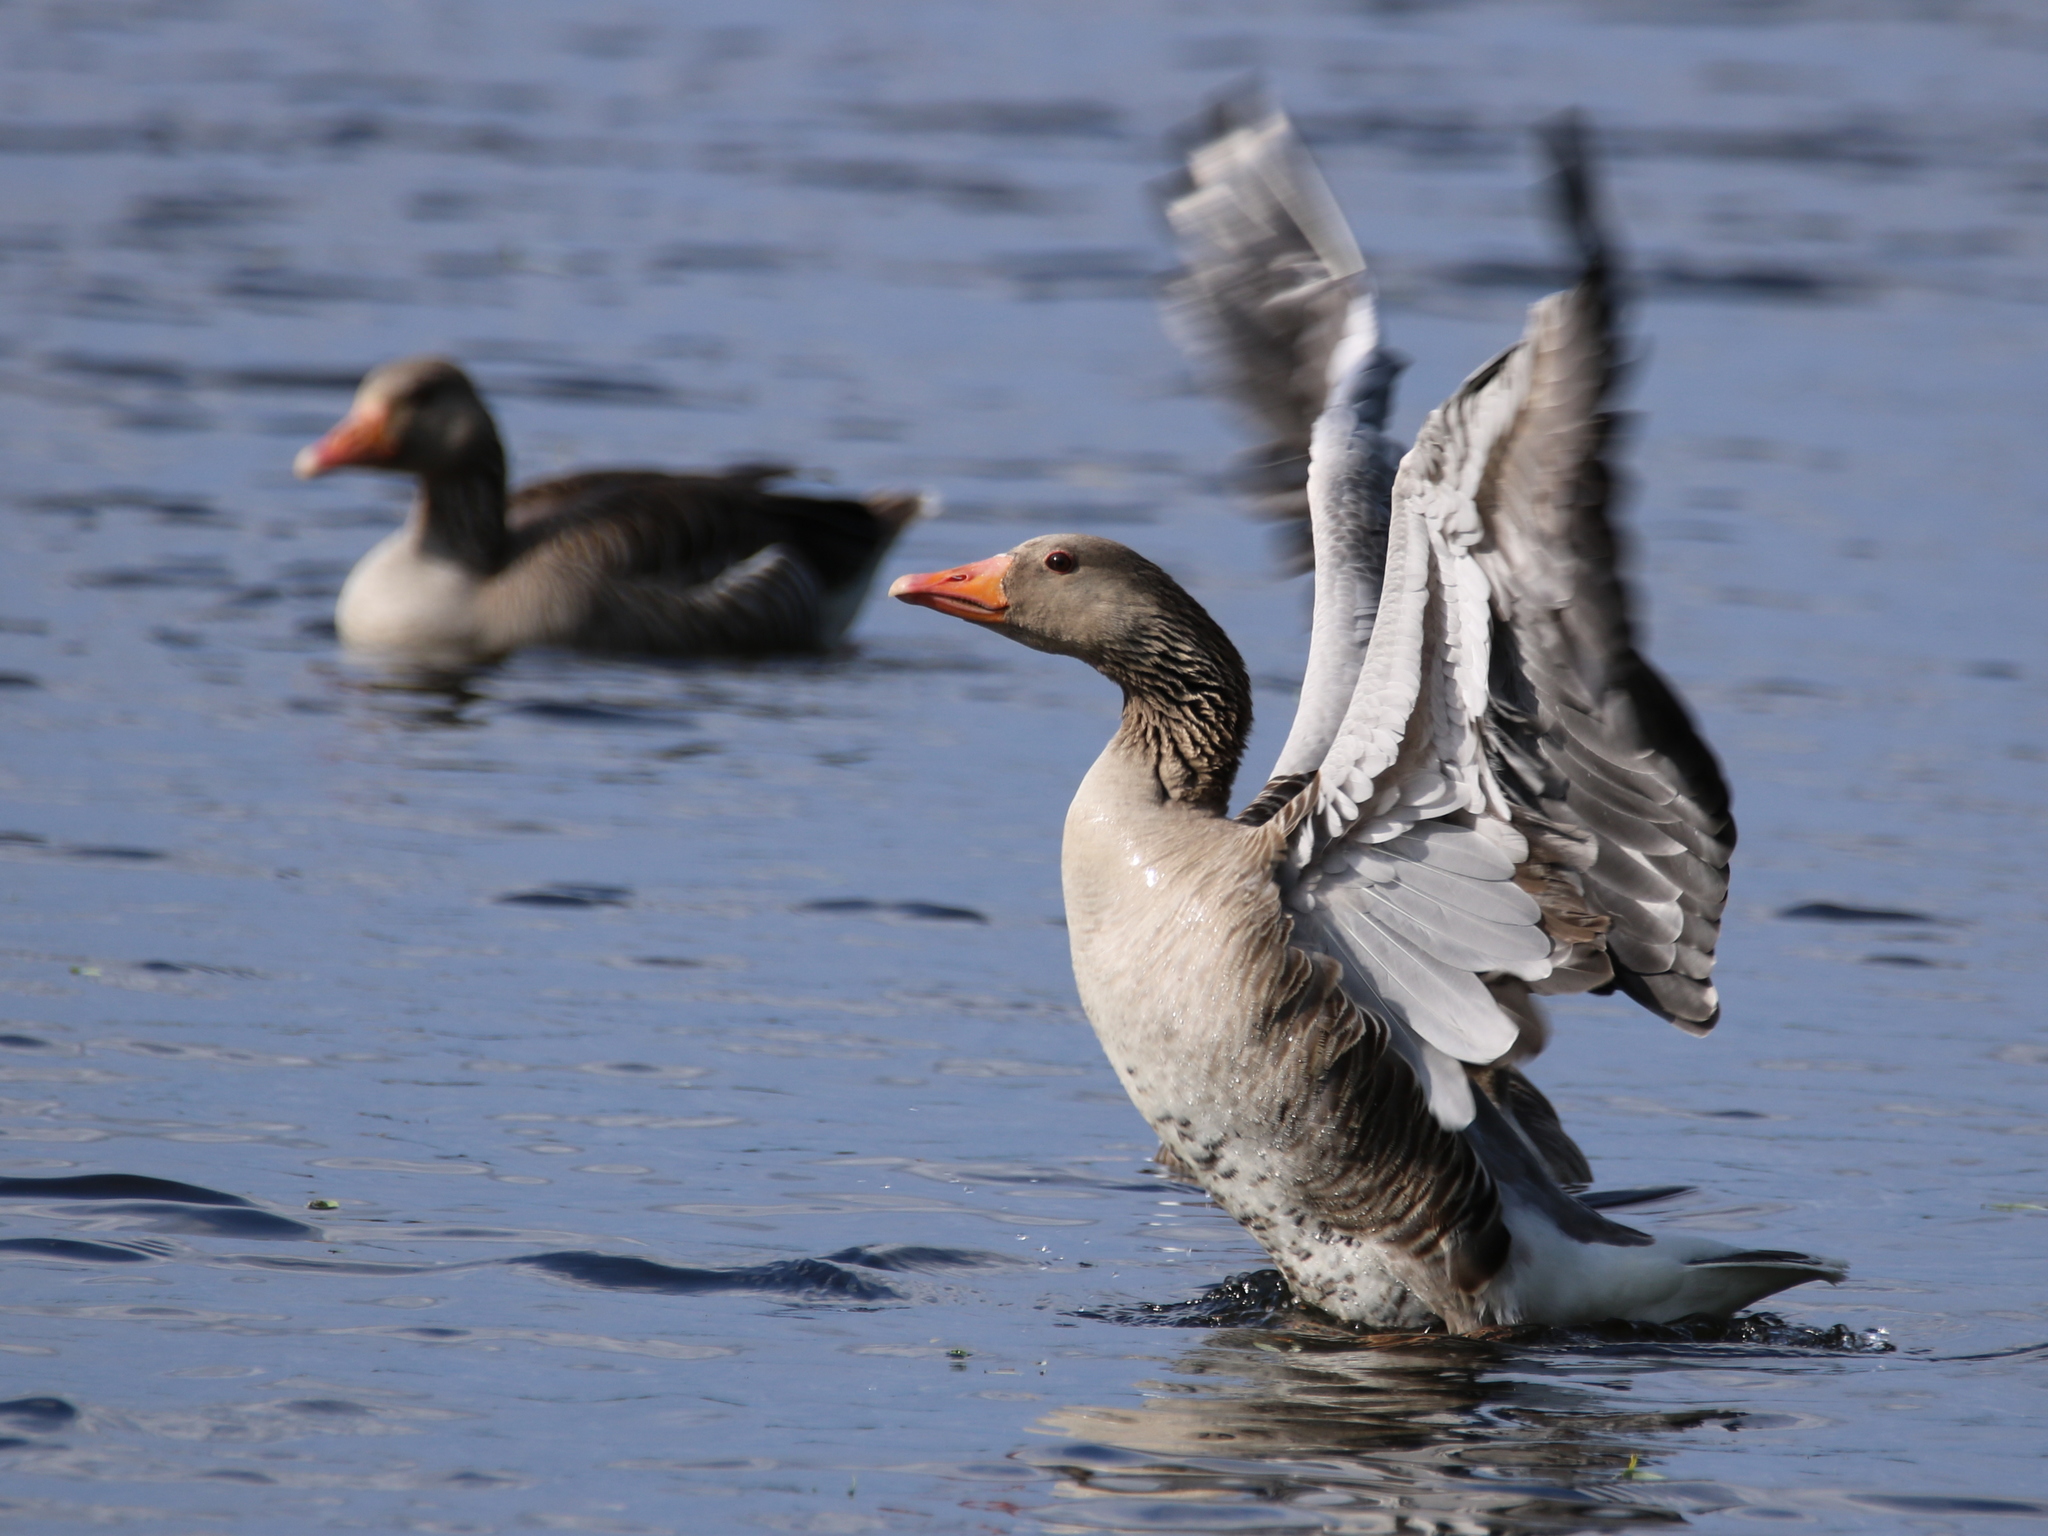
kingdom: Animalia
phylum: Chordata
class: Aves
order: Anseriformes
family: Anatidae
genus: Anser
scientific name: Anser anser
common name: Greylag goose
